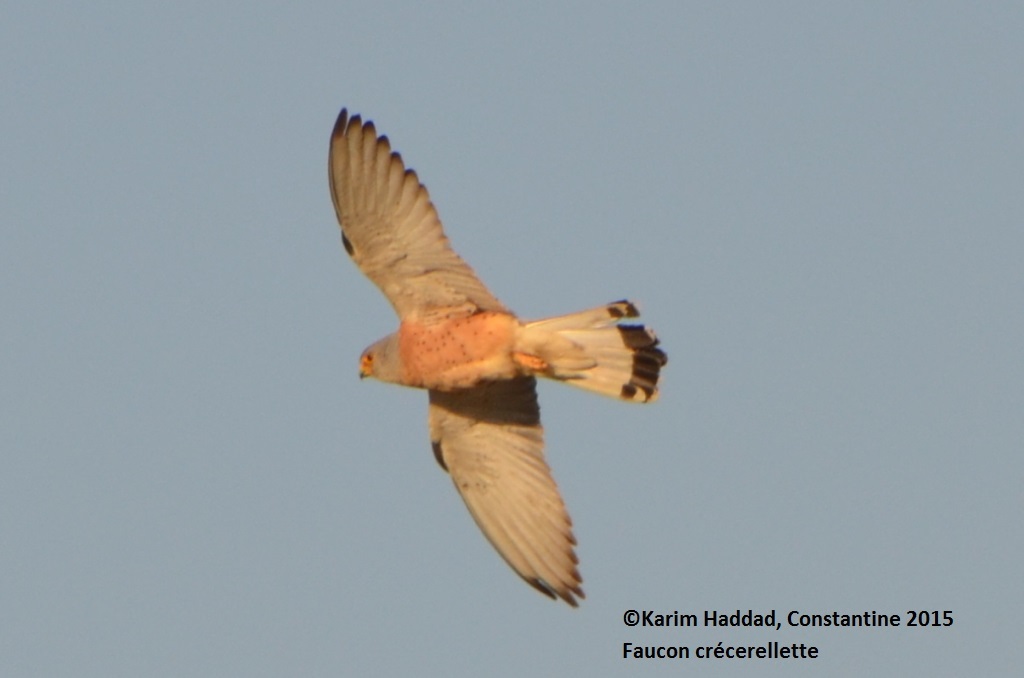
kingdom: Animalia
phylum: Chordata
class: Aves
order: Falconiformes
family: Falconidae
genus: Falco
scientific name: Falco naumanni
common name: Lesser kestrel
